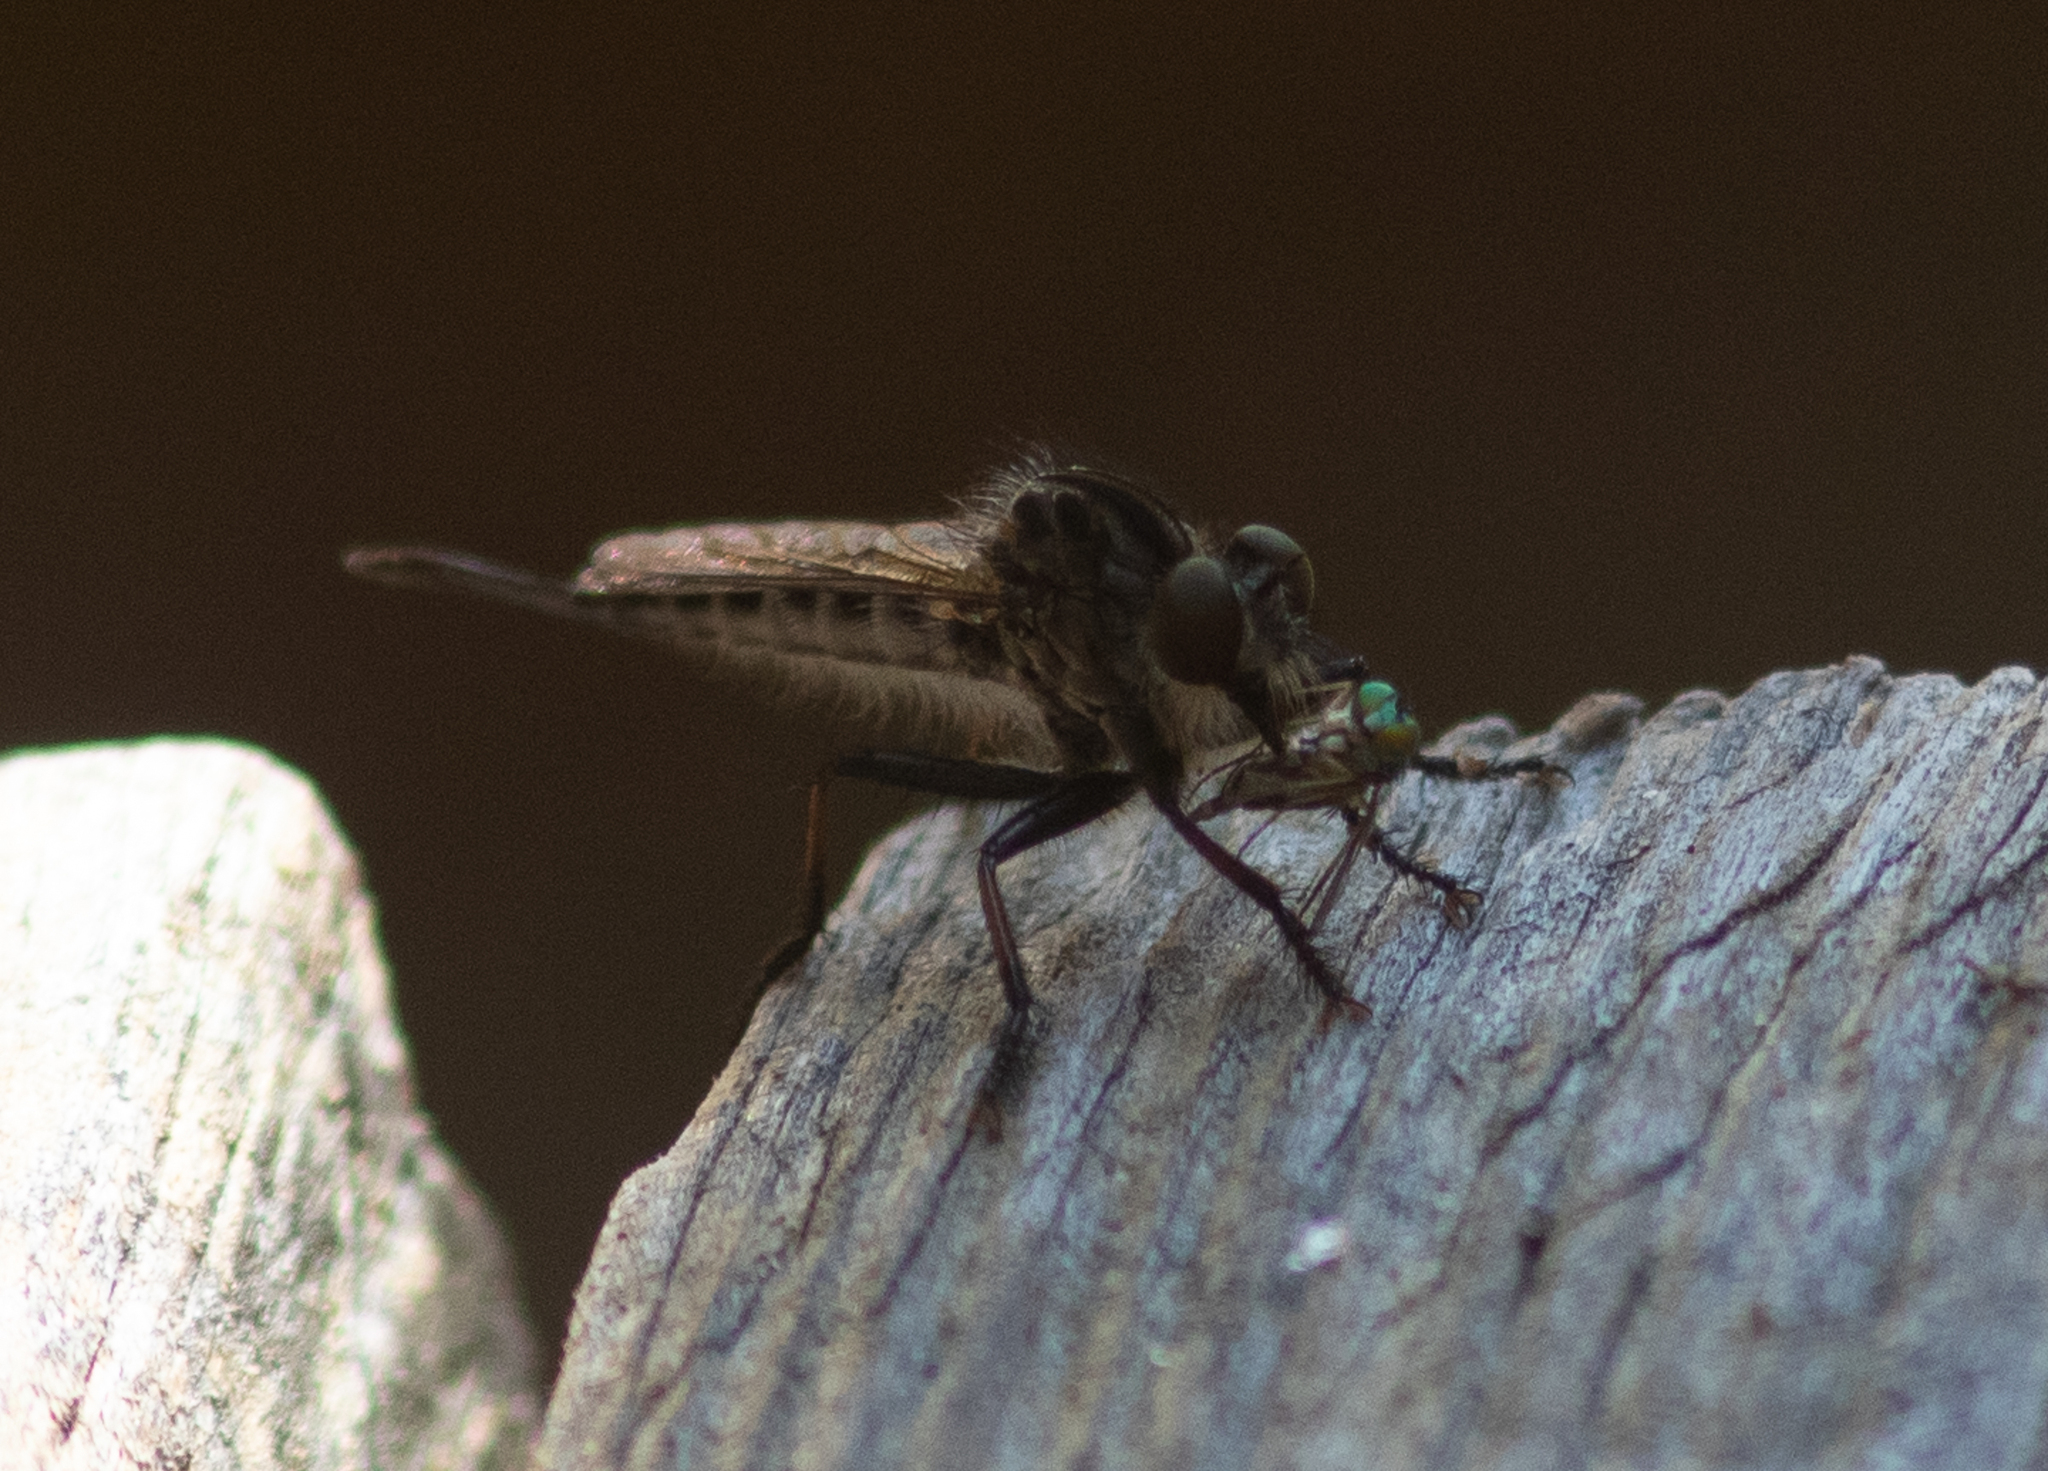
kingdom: Animalia
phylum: Arthropoda
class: Insecta
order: Diptera
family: Asilidae
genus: Efferia
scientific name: Efferia aestuans
